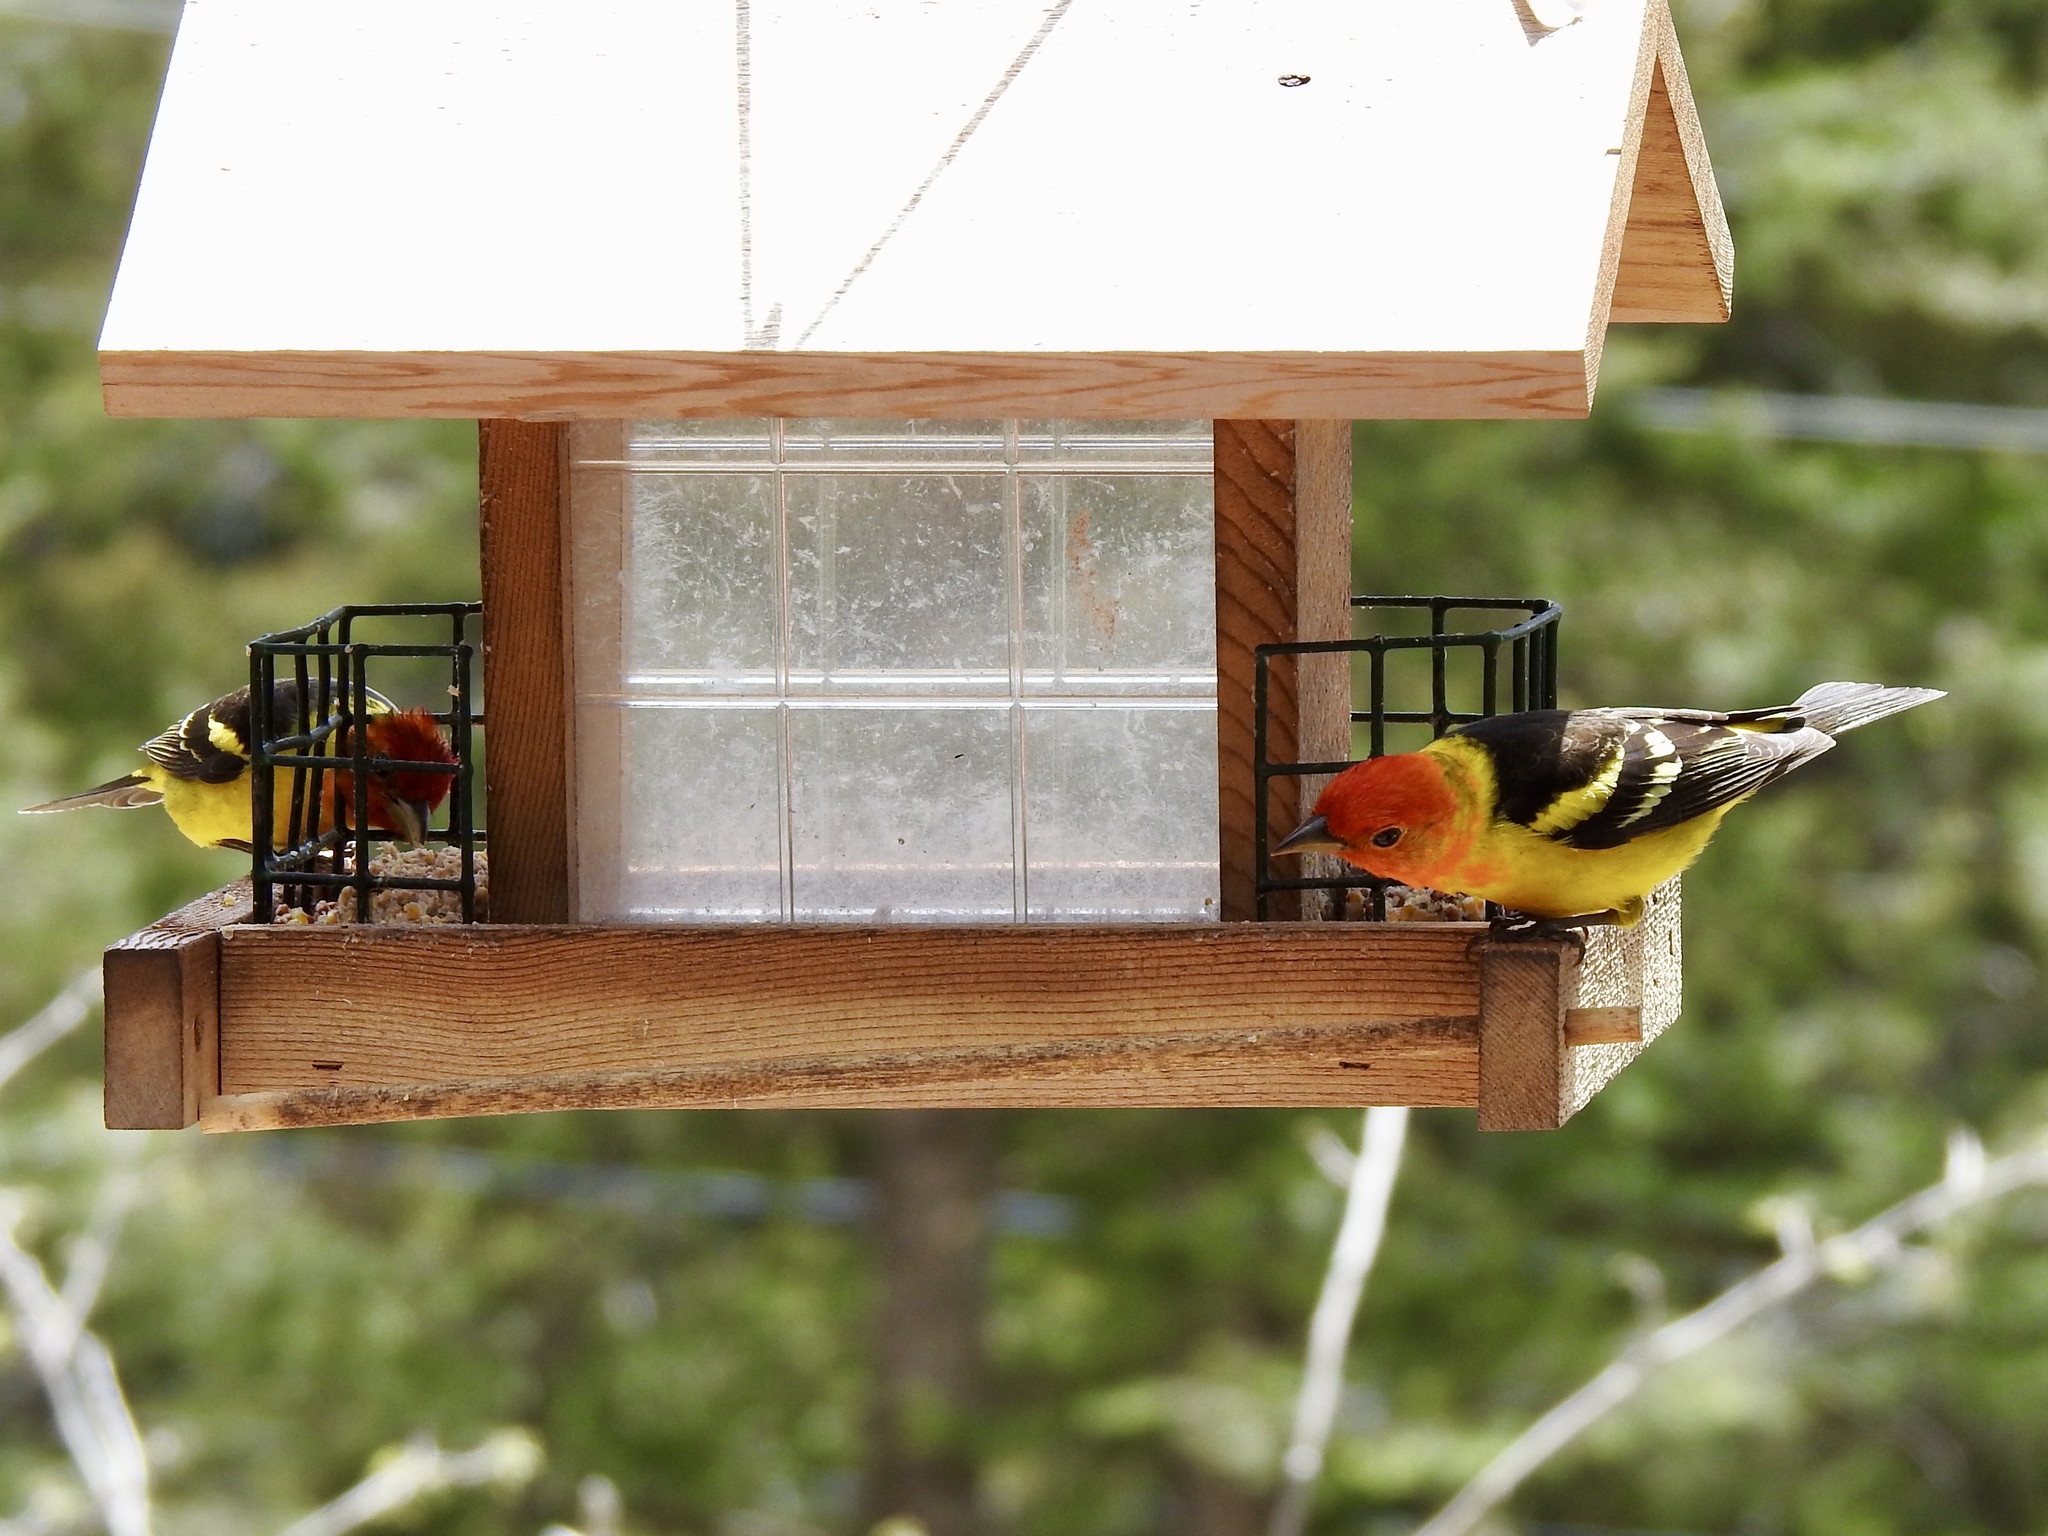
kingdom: Animalia
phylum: Chordata
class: Aves
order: Passeriformes
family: Cardinalidae
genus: Piranga
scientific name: Piranga ludoviciana
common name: Western tanager
